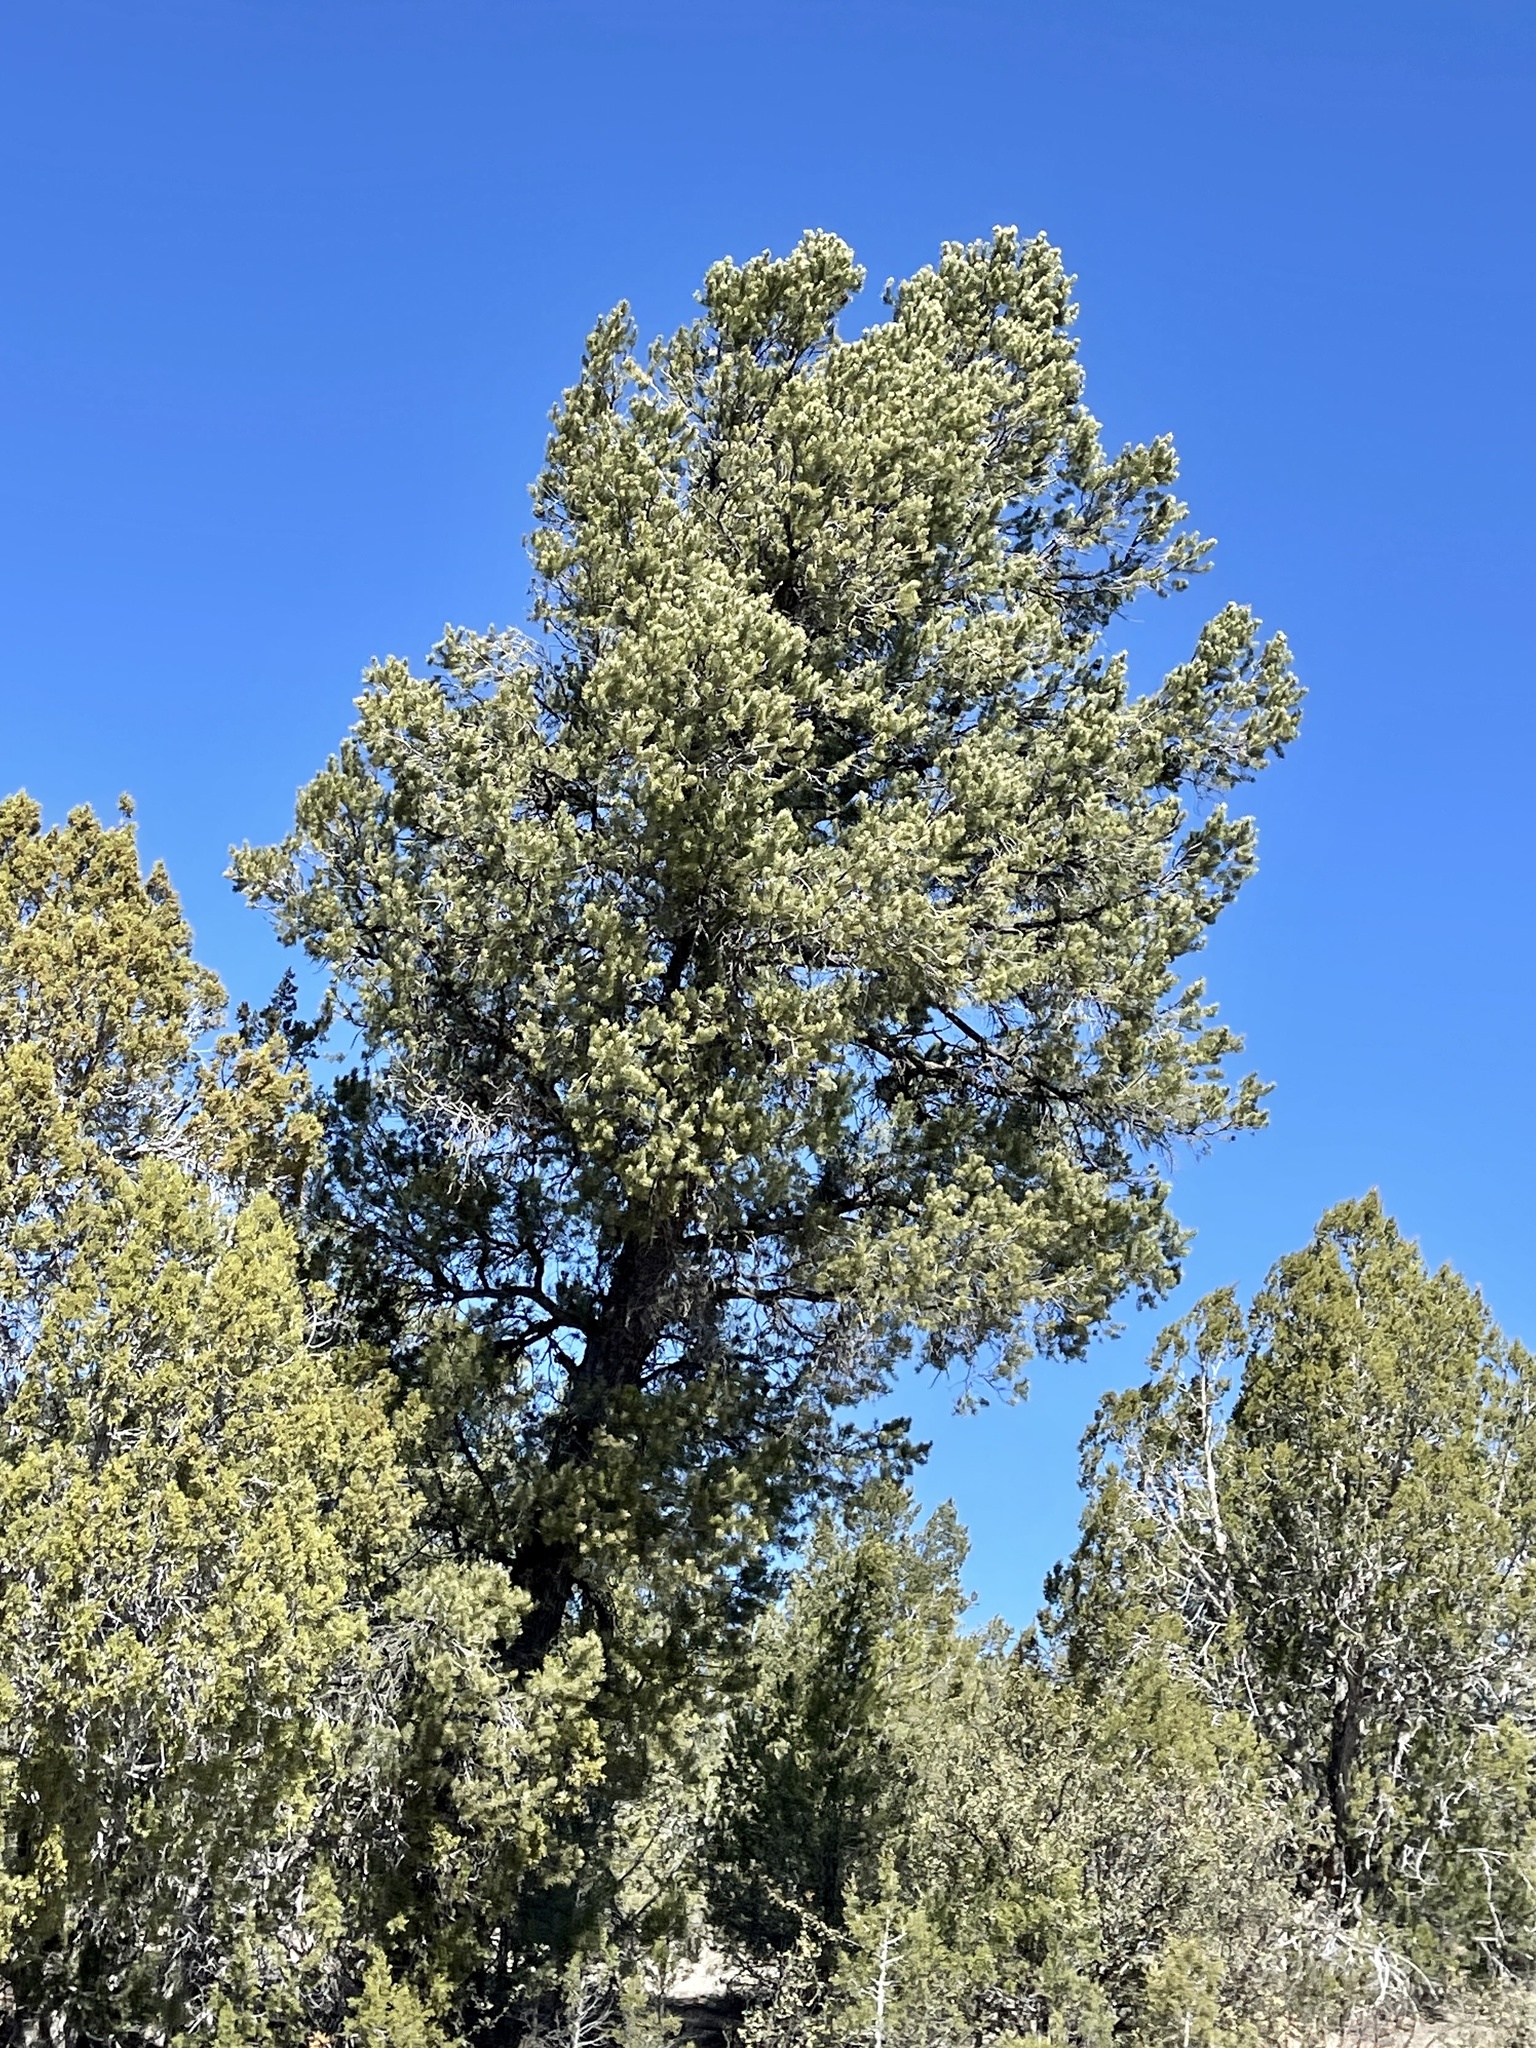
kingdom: Plantae
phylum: Tracheophyta
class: Pinopsida
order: Pinales
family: Pinaceae
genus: Pinus
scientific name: Pinus edulis
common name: Colorado pinyon
